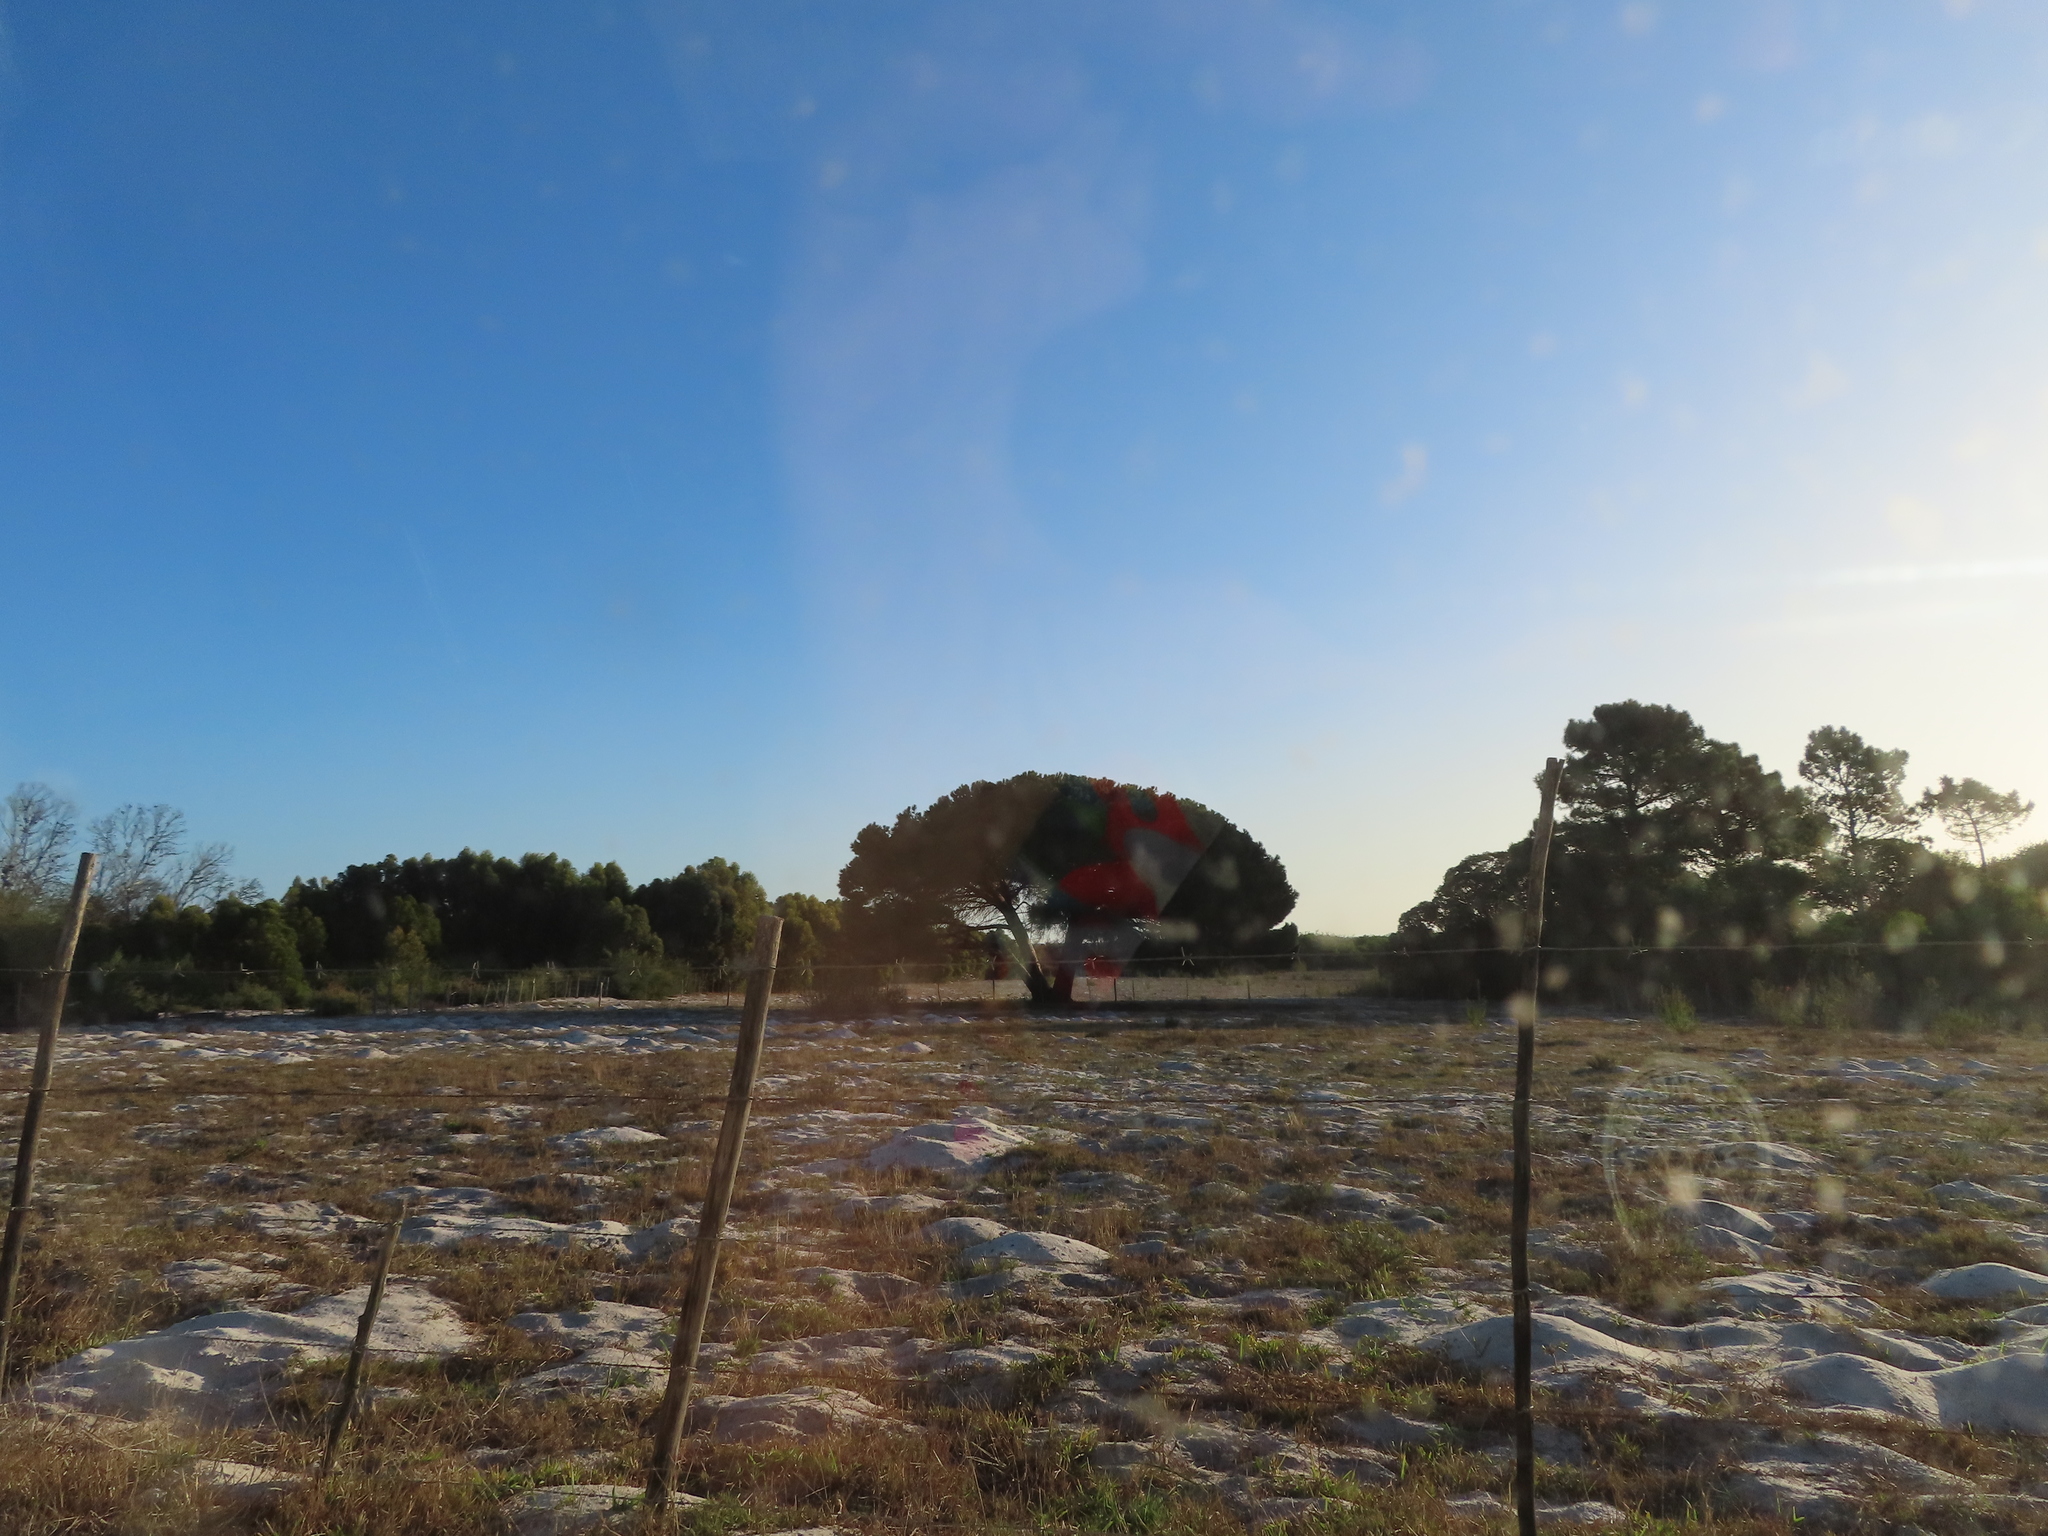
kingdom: Plantae
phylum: Tracheophyta
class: Pinopsida
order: Pinales
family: Pinaceae
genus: Pinus
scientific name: Pinus pinea
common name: Italian stone pine
